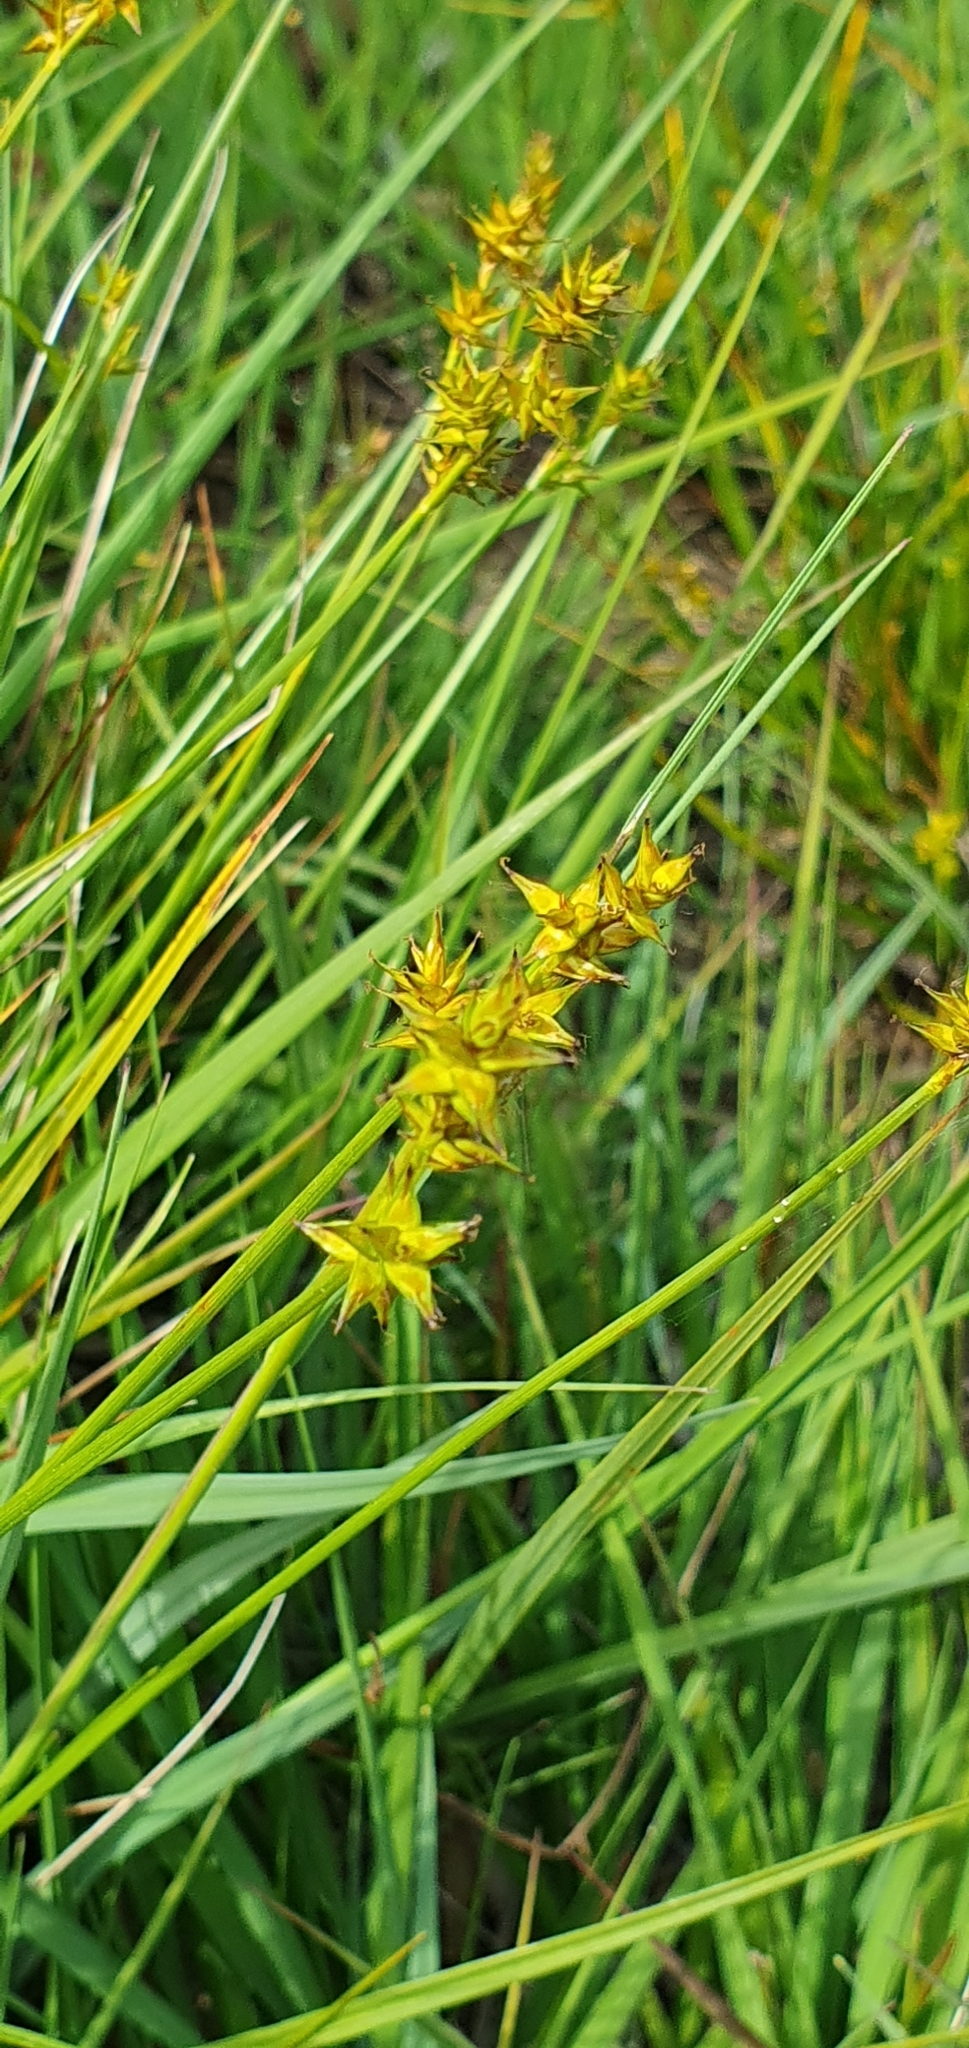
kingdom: Plantae
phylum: Tracheophyta
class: Liliopsida
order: Poales
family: Cyperaceae
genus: Carex
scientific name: Carex echinata
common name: Star sedge
